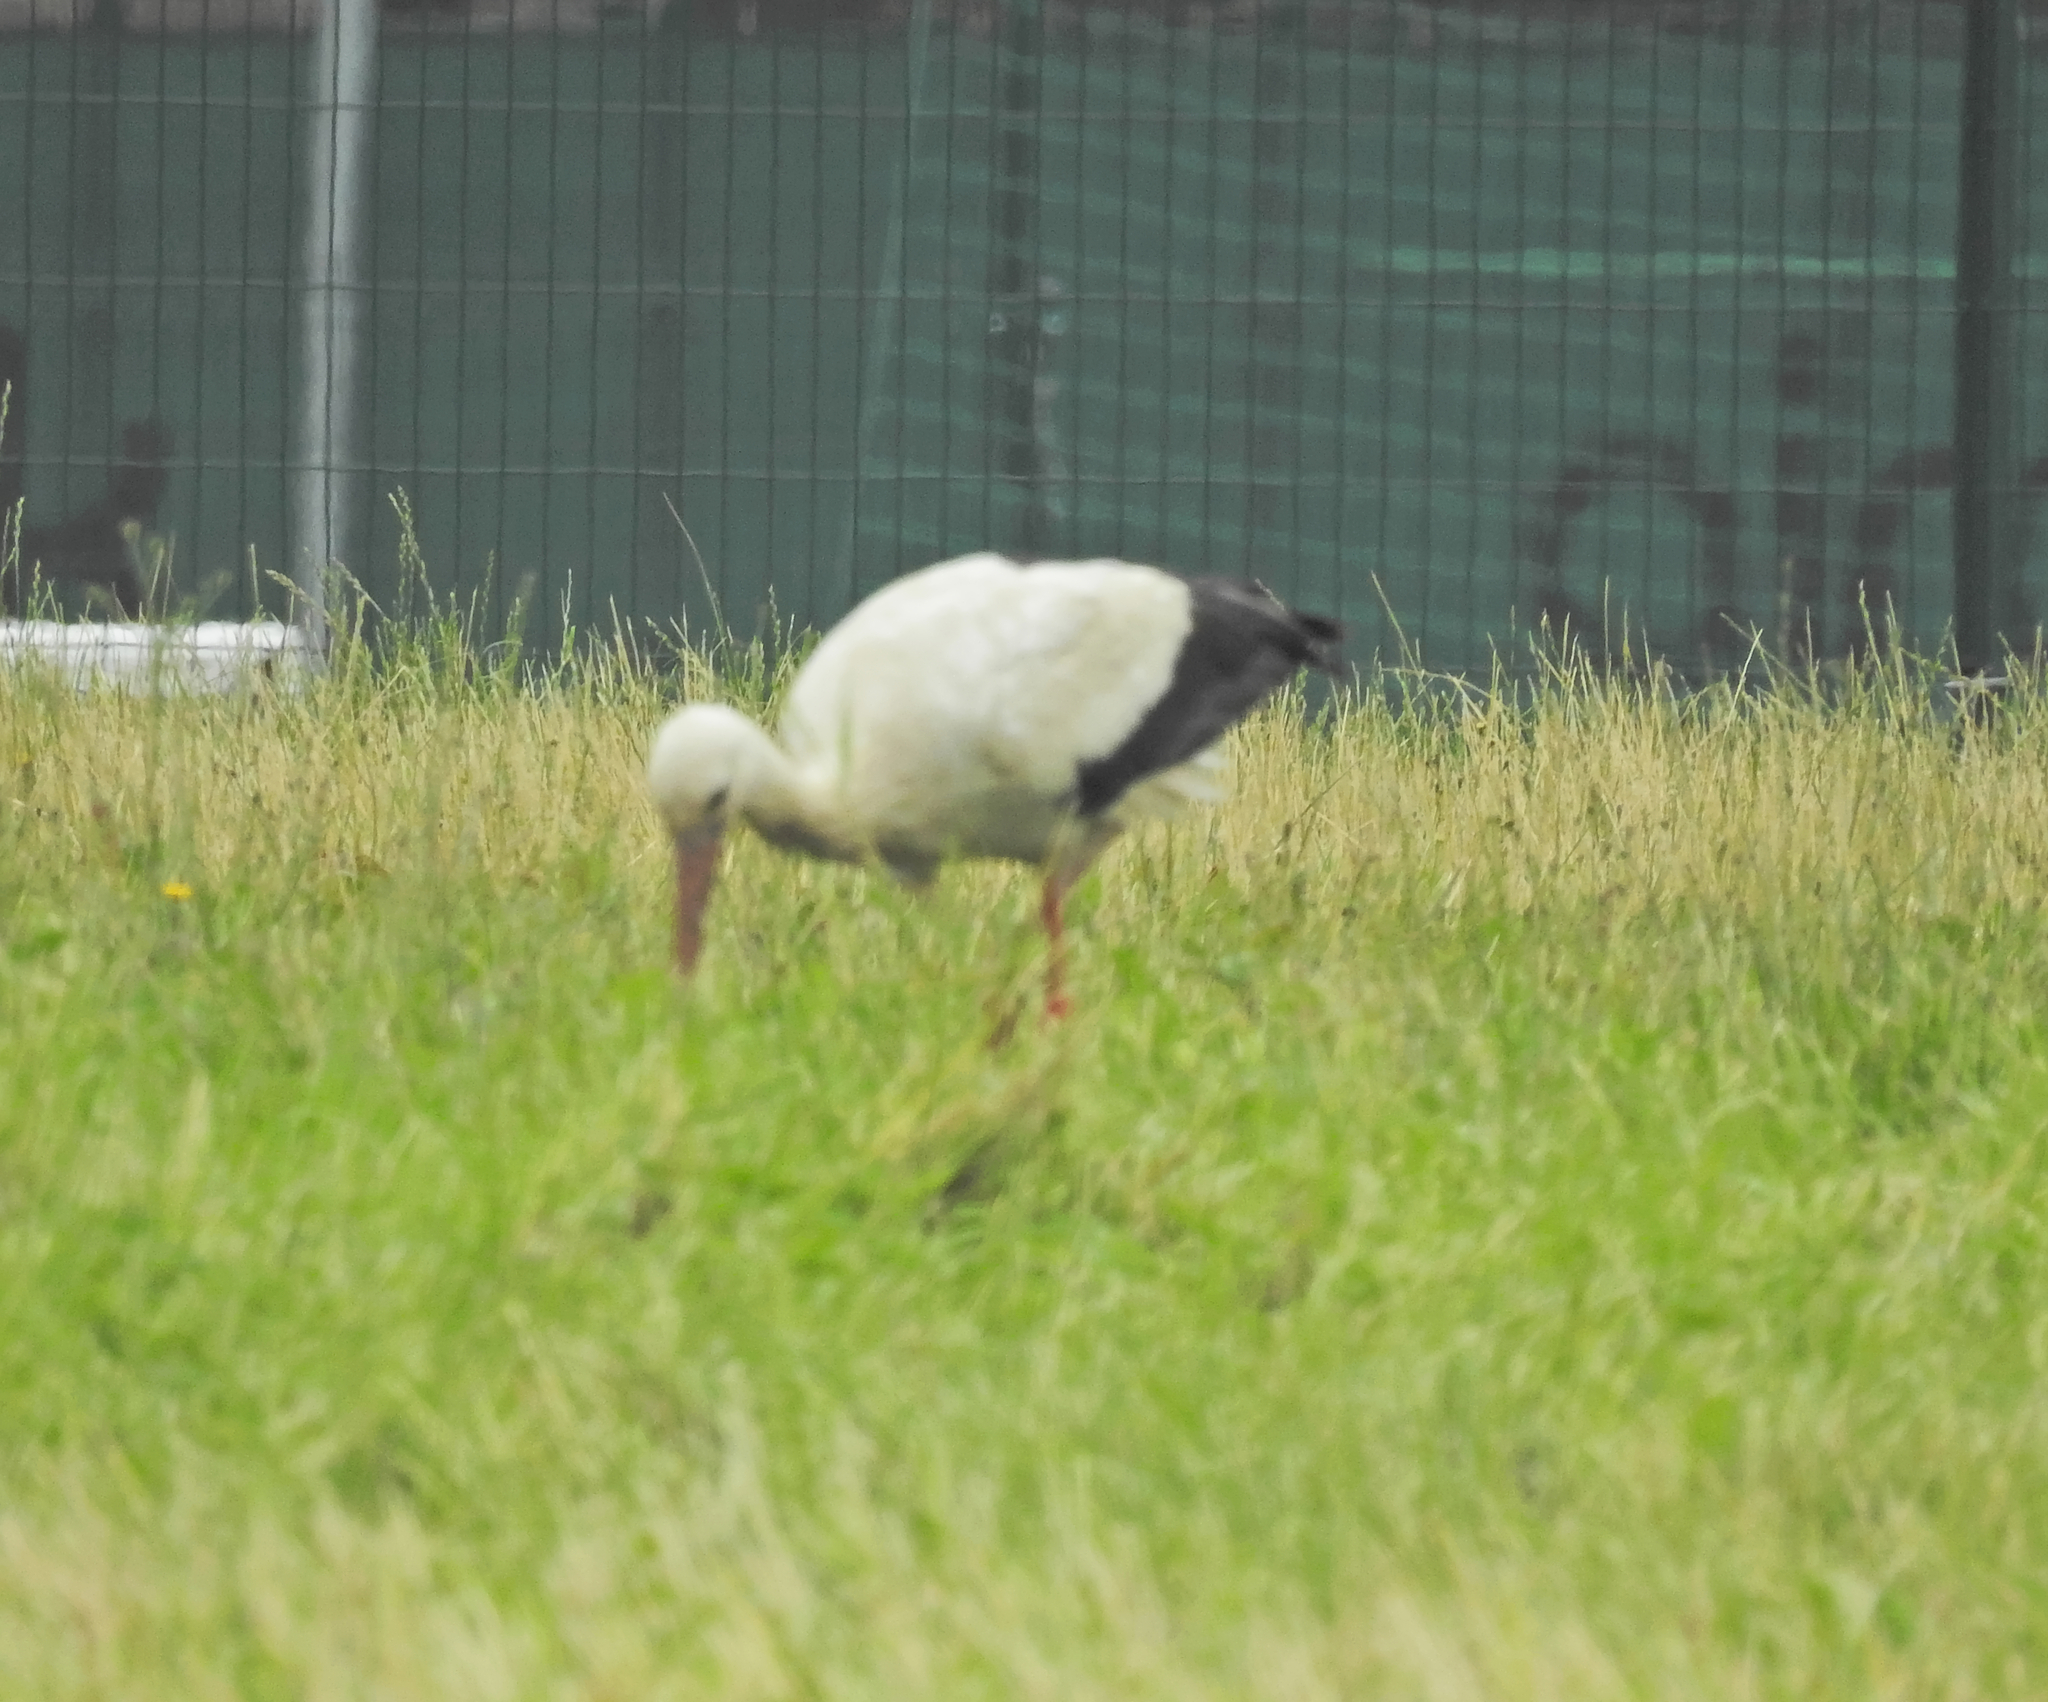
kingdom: Animalia
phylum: Chordata
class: Aves
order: Ciconiiformes
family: Ciconiidae
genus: Ciconia
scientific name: Ciconia ciconia
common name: White stork
